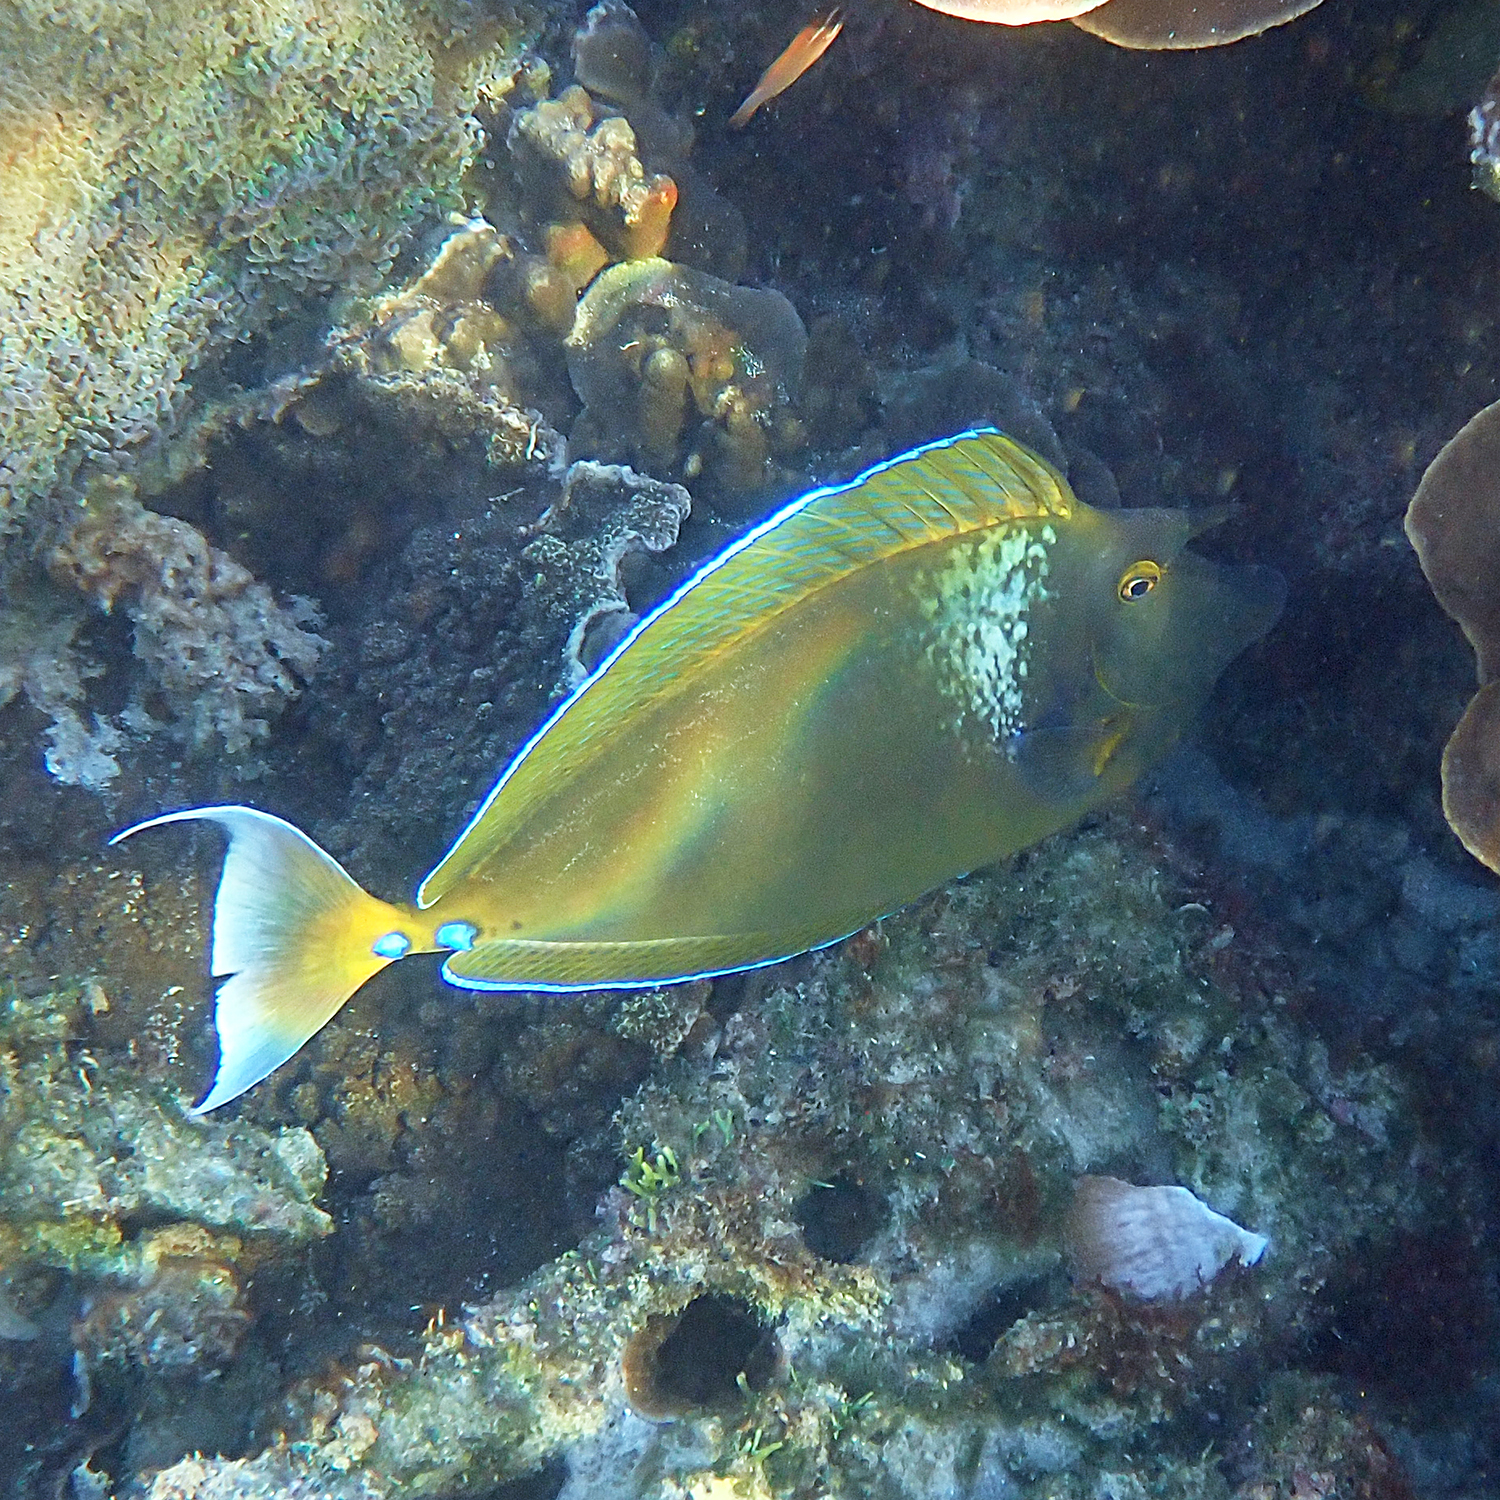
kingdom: Animalia
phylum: Chordata
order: Perciformes
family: Acanthuridae
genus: Naso
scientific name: Naso unicornis
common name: Bluespine unicornfish
